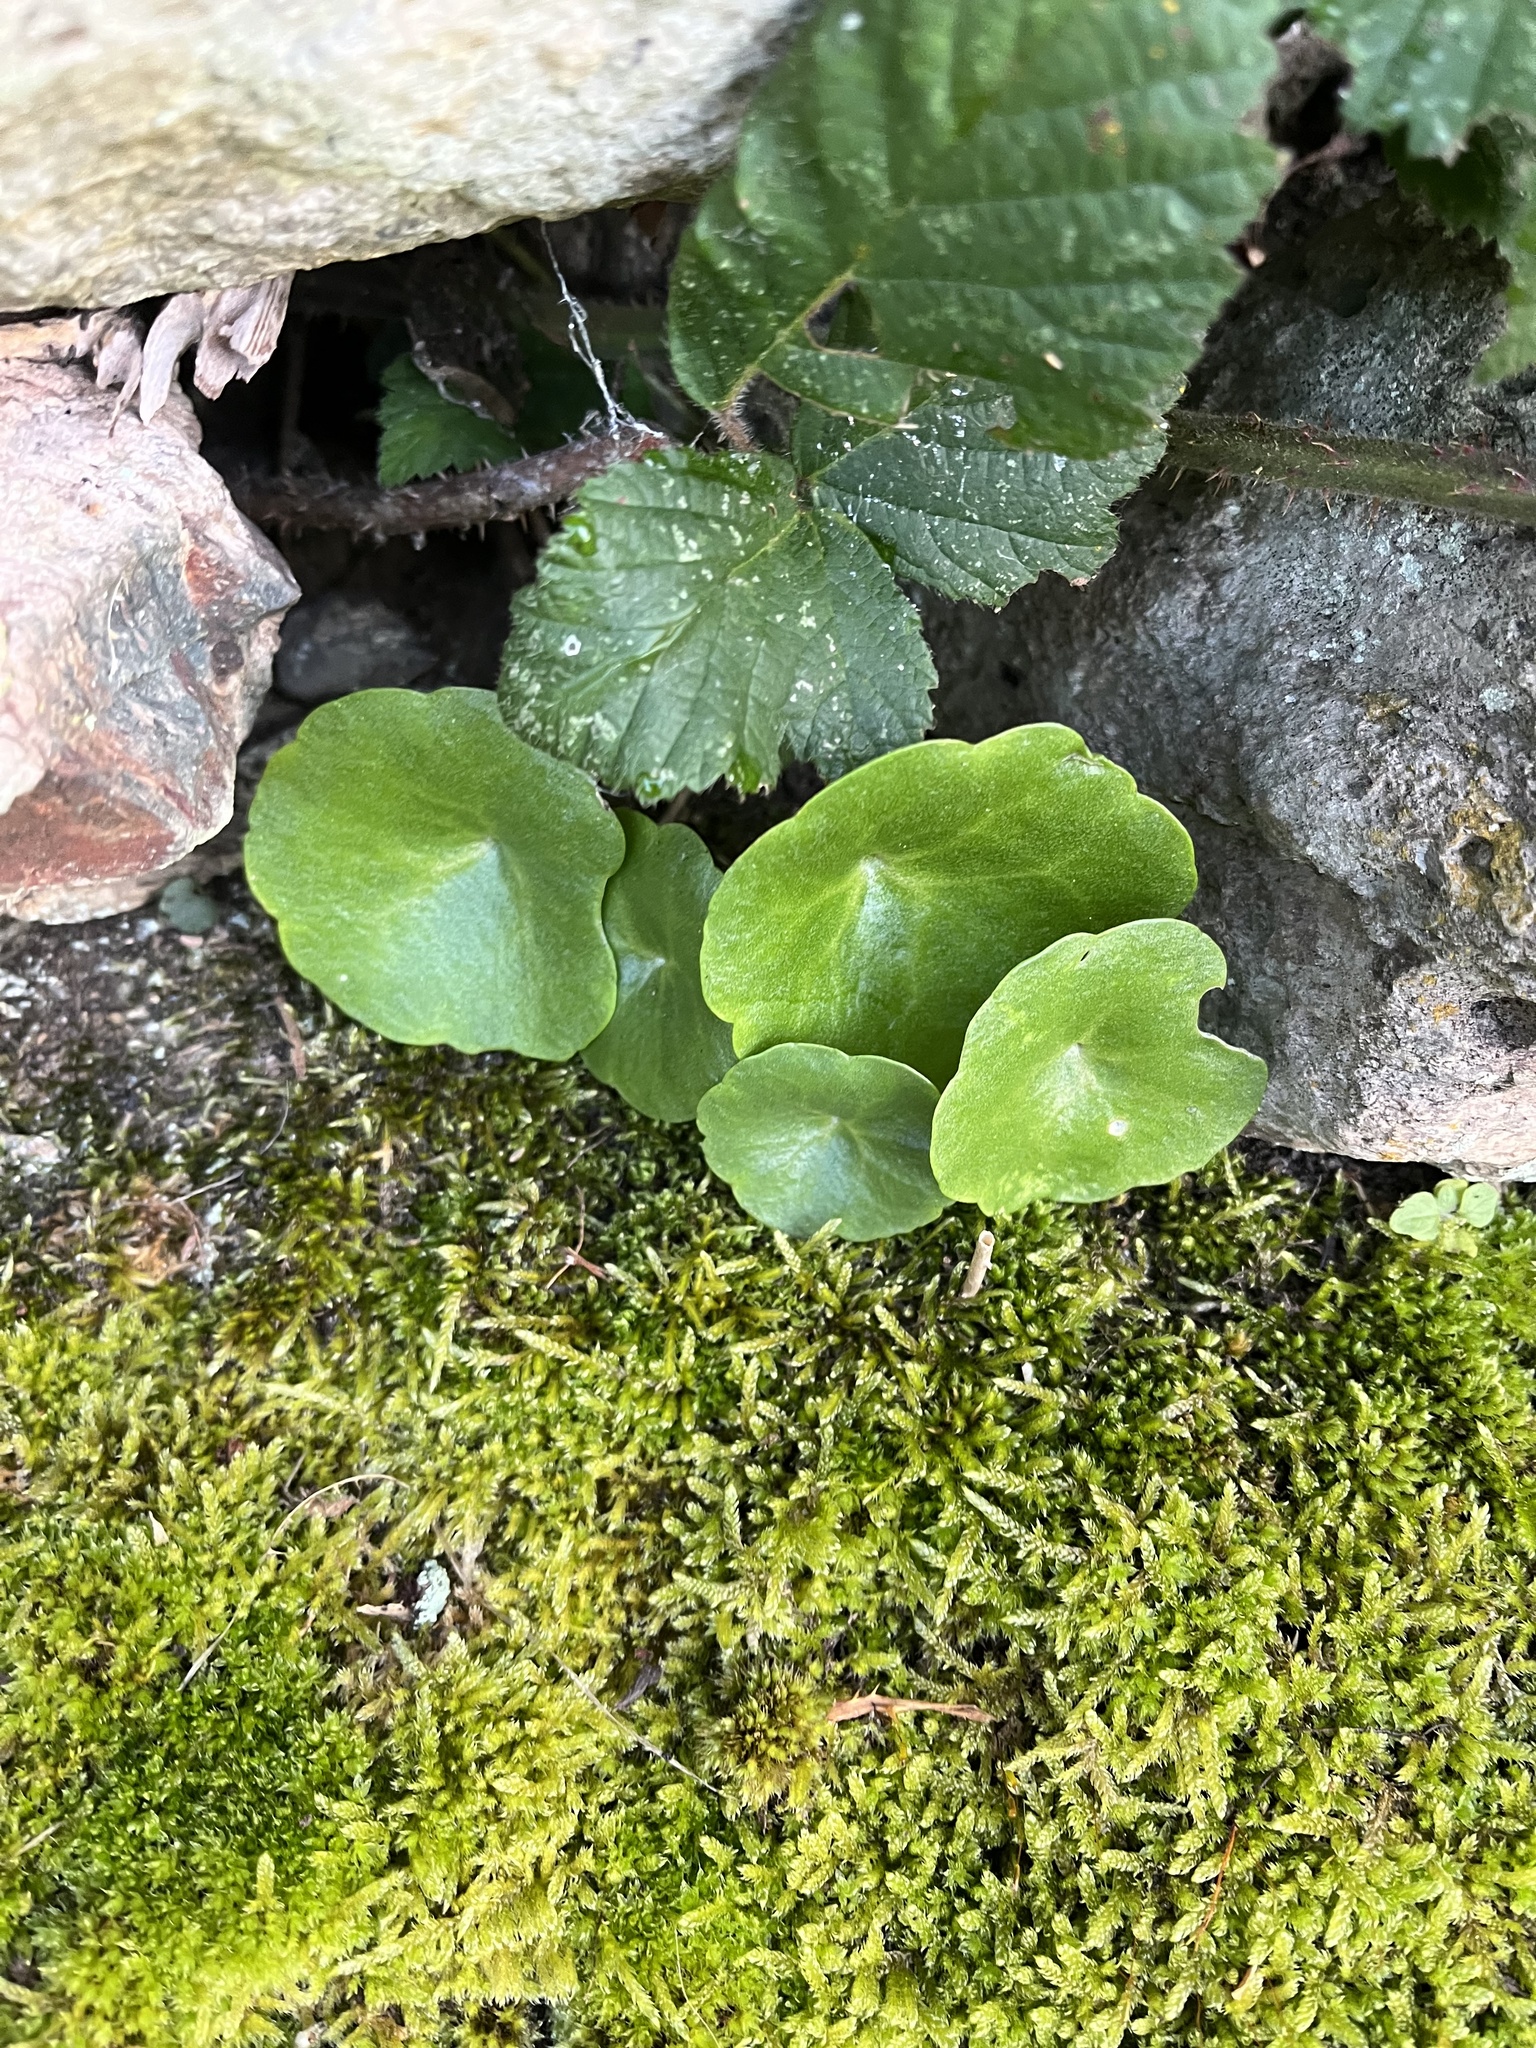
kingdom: Plantae
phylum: Tracheophyta
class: Magnoliopsida
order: Saxifragales
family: Crassulaceae
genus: Umbilicus
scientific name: Umbilicus rupestris
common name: Navelwort
